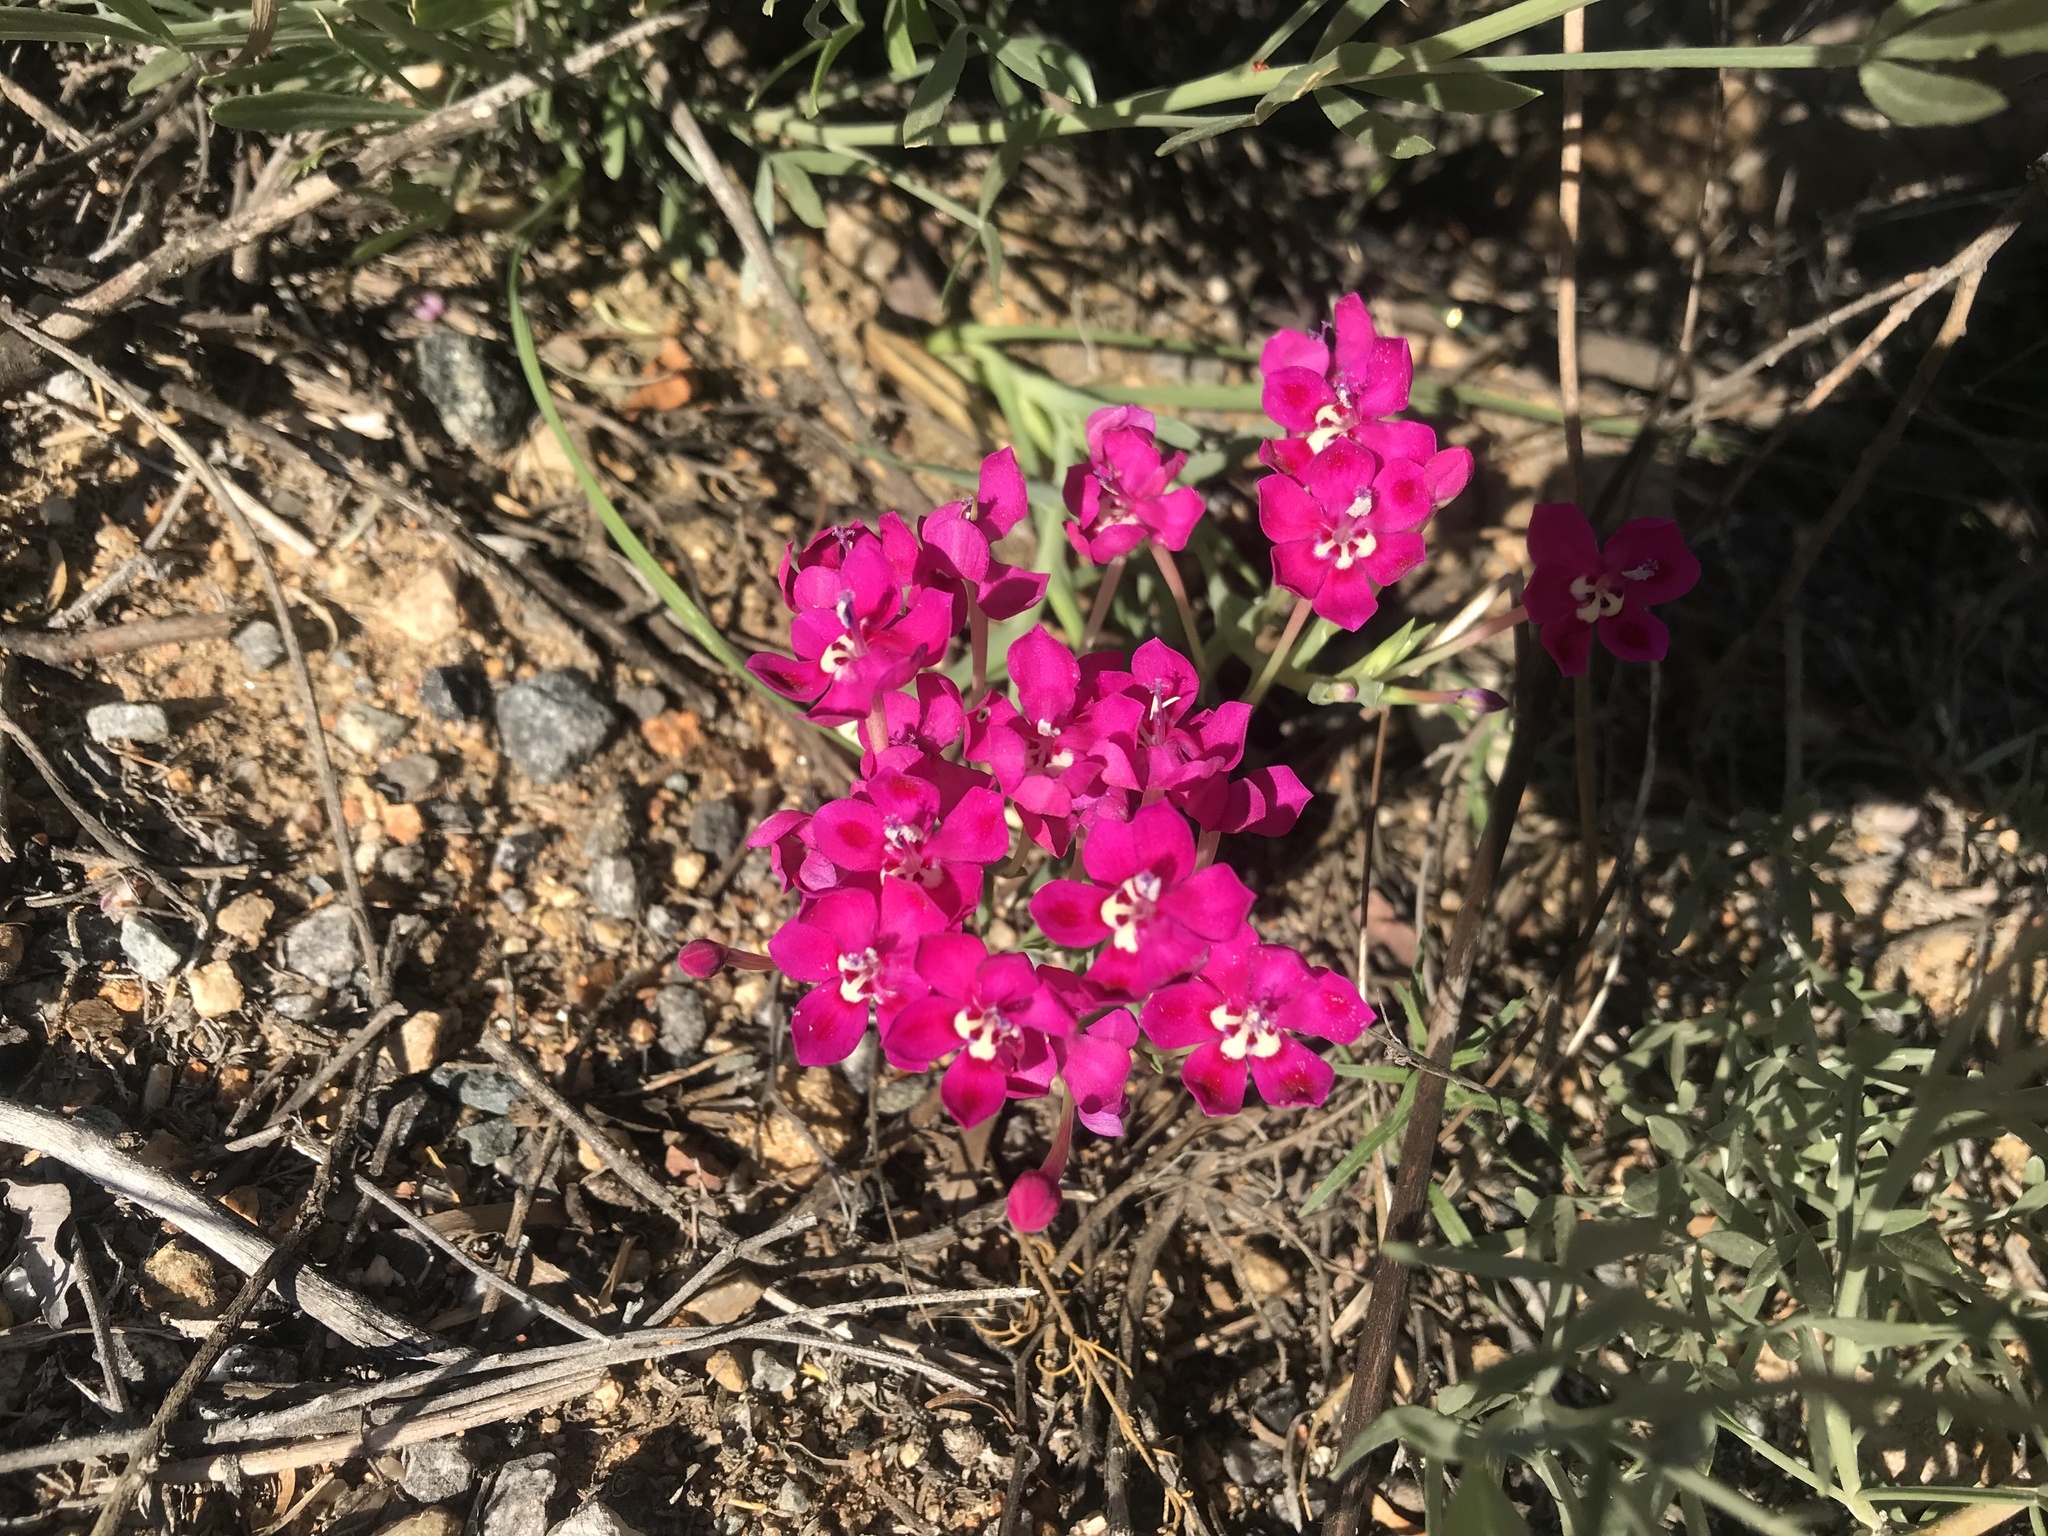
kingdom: Plantae
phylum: Tracheophyta
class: Liliopsida
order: Asparagales
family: Iridaceae
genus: Lapeirousia
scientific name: Lapeirousia silenoides
